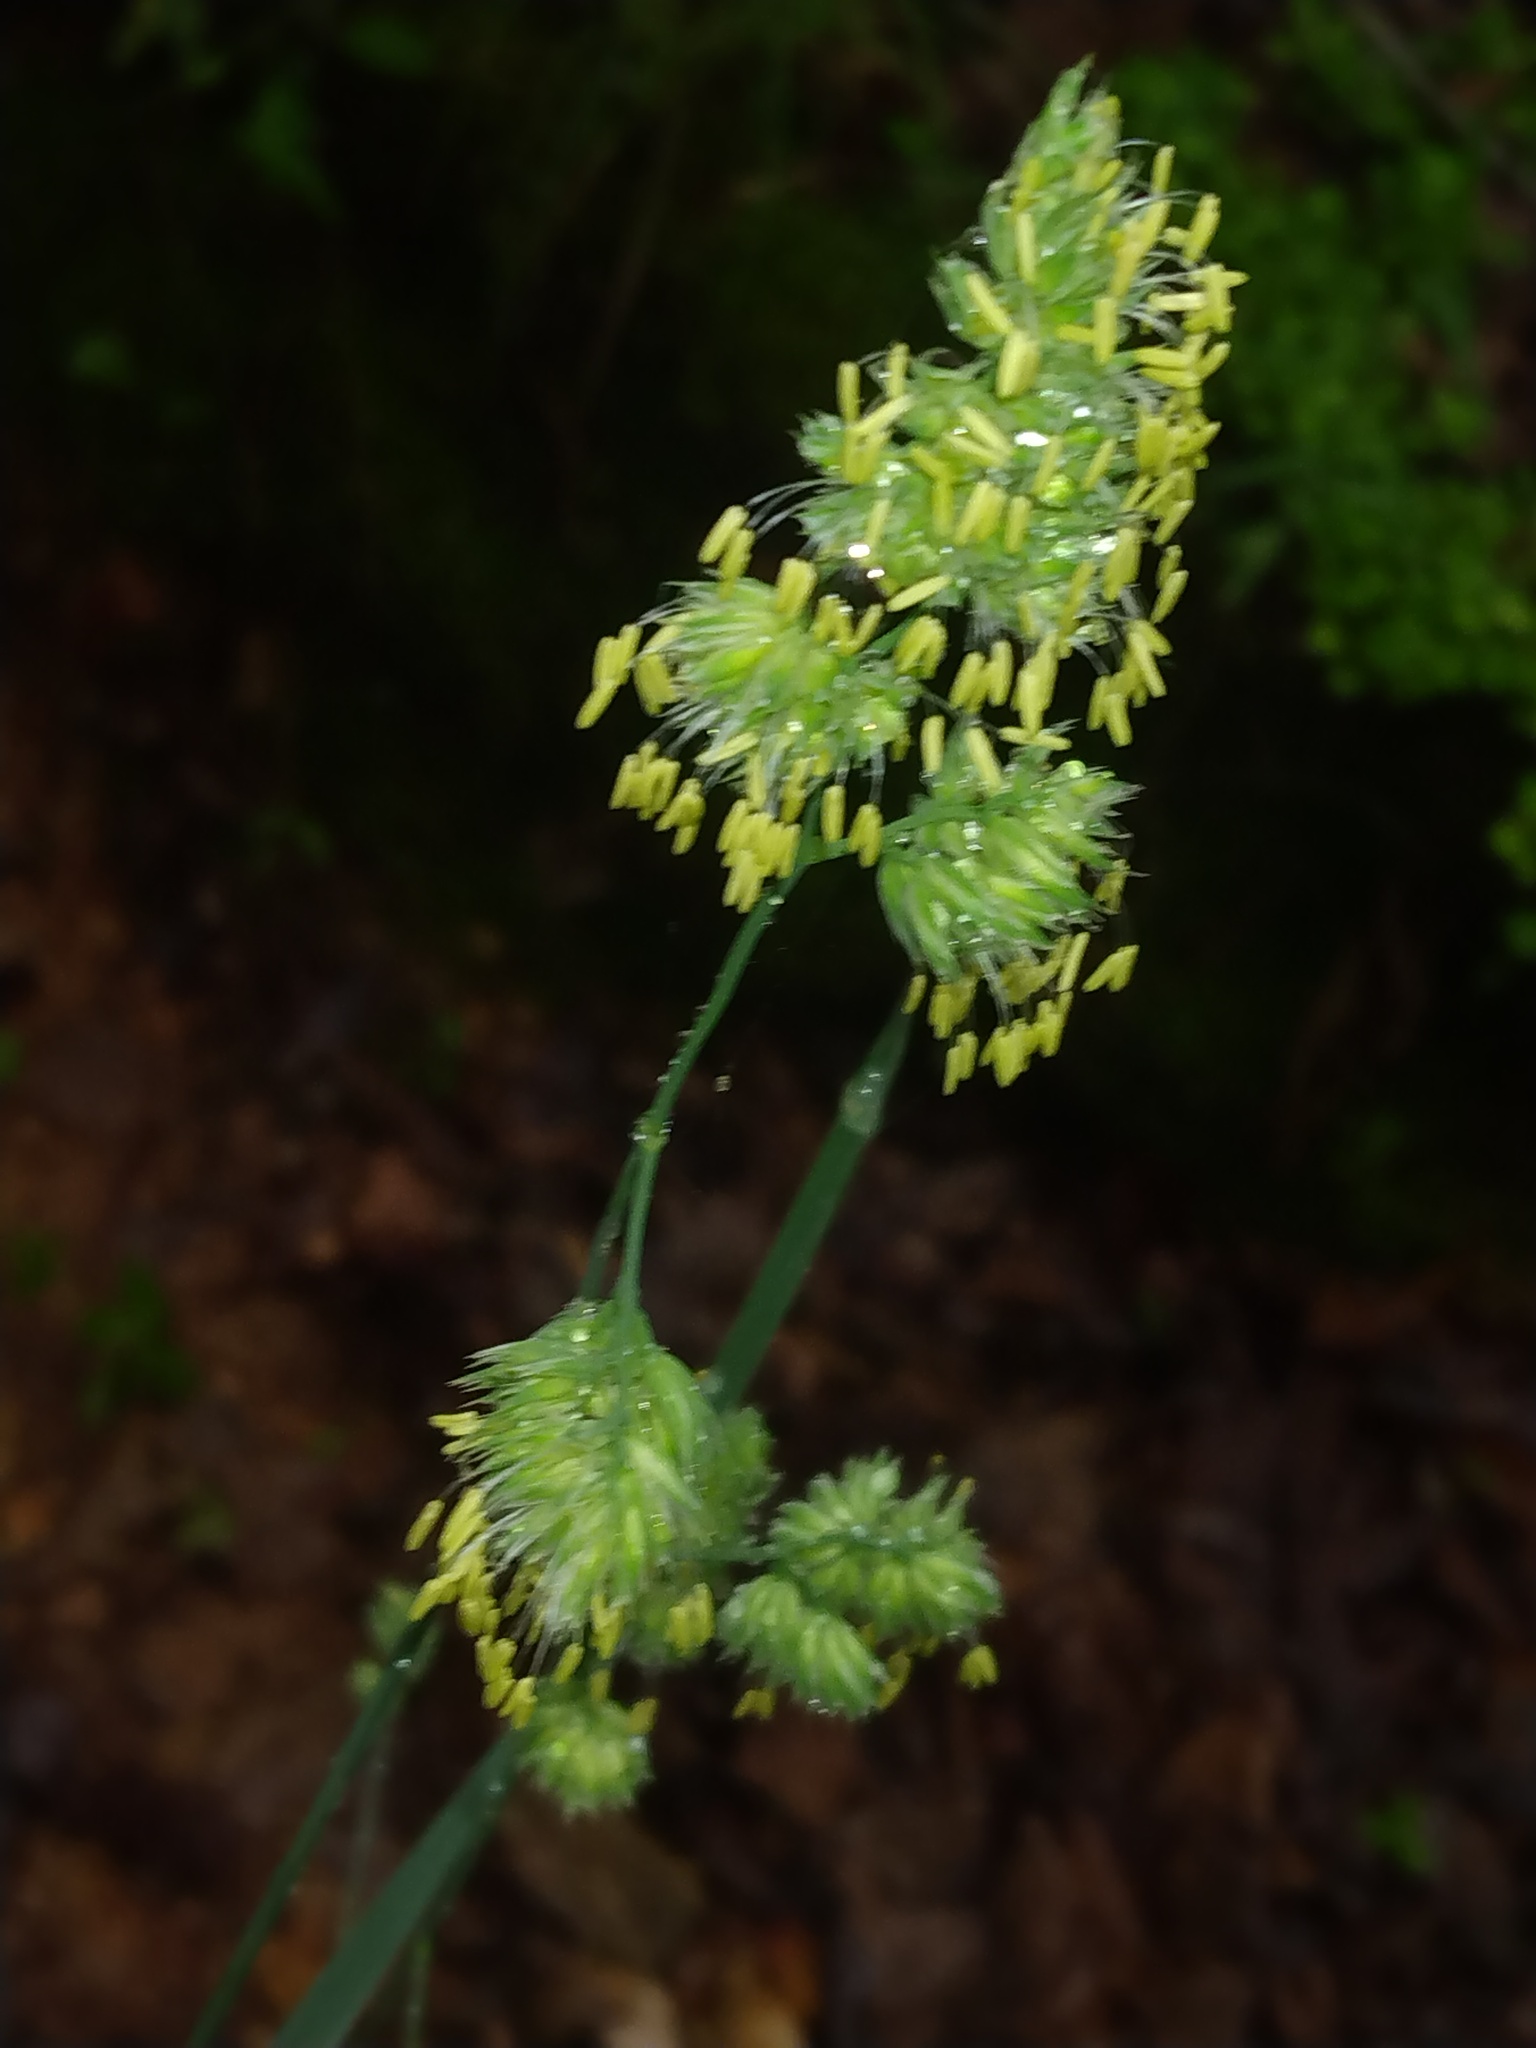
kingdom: Plantae
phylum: Tracheophyta
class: Liliopsida
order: Poales
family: Poaceae
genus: Dactylis
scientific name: Dactylis glomerata
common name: Orchardgrass
